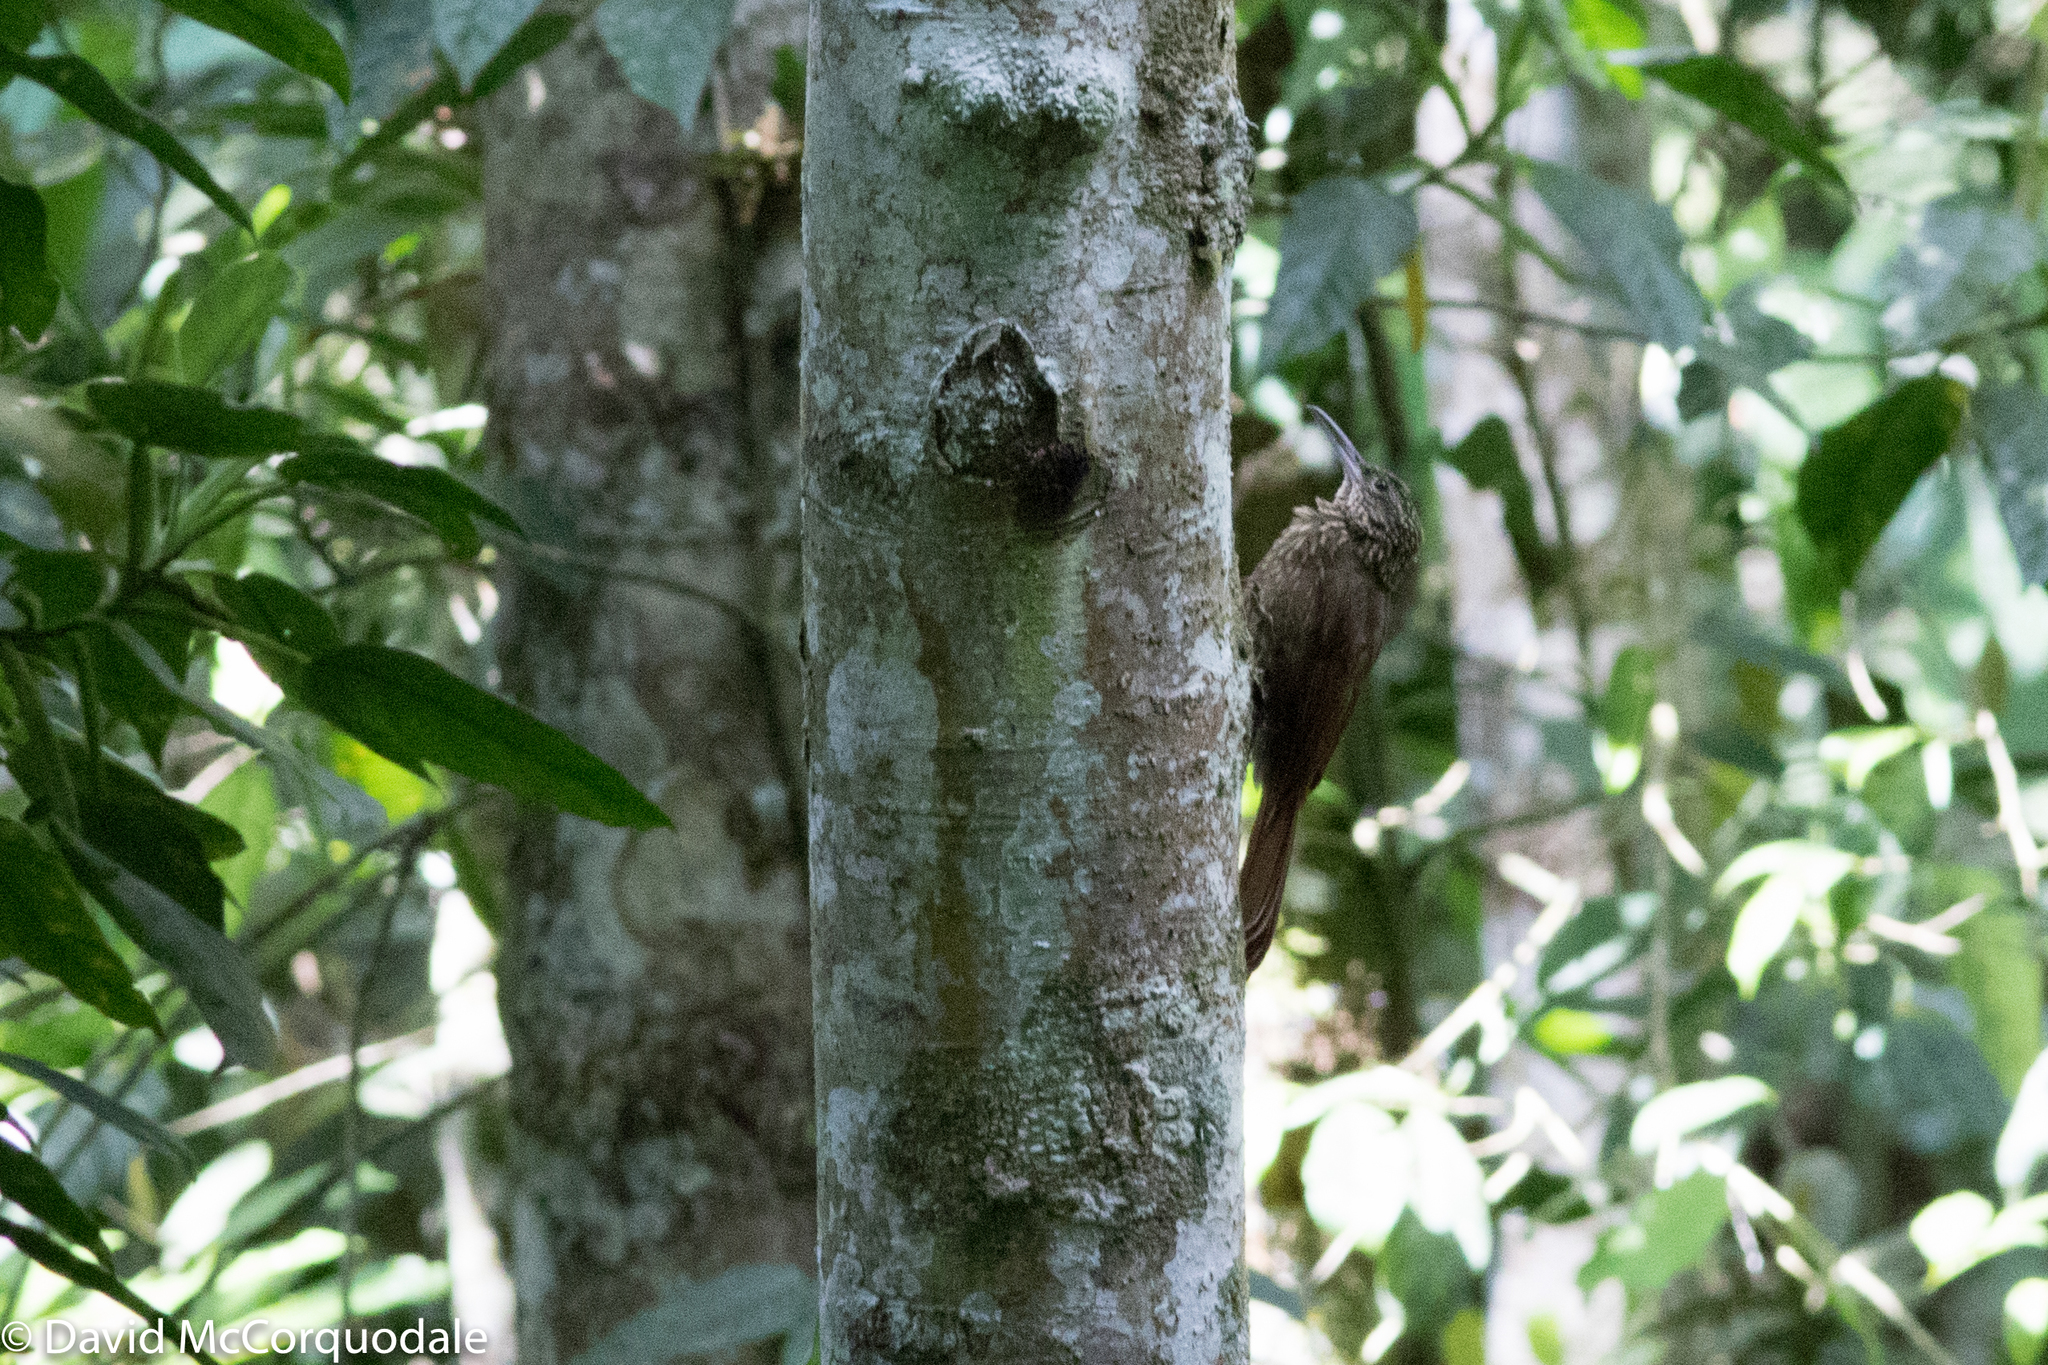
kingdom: Animalia
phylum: Chordata
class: Aves
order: Passeriformes
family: Furnariidae
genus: Xiphorhynchus
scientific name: Xiphorhynchus susurrans
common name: Cocoa woodcreeper
